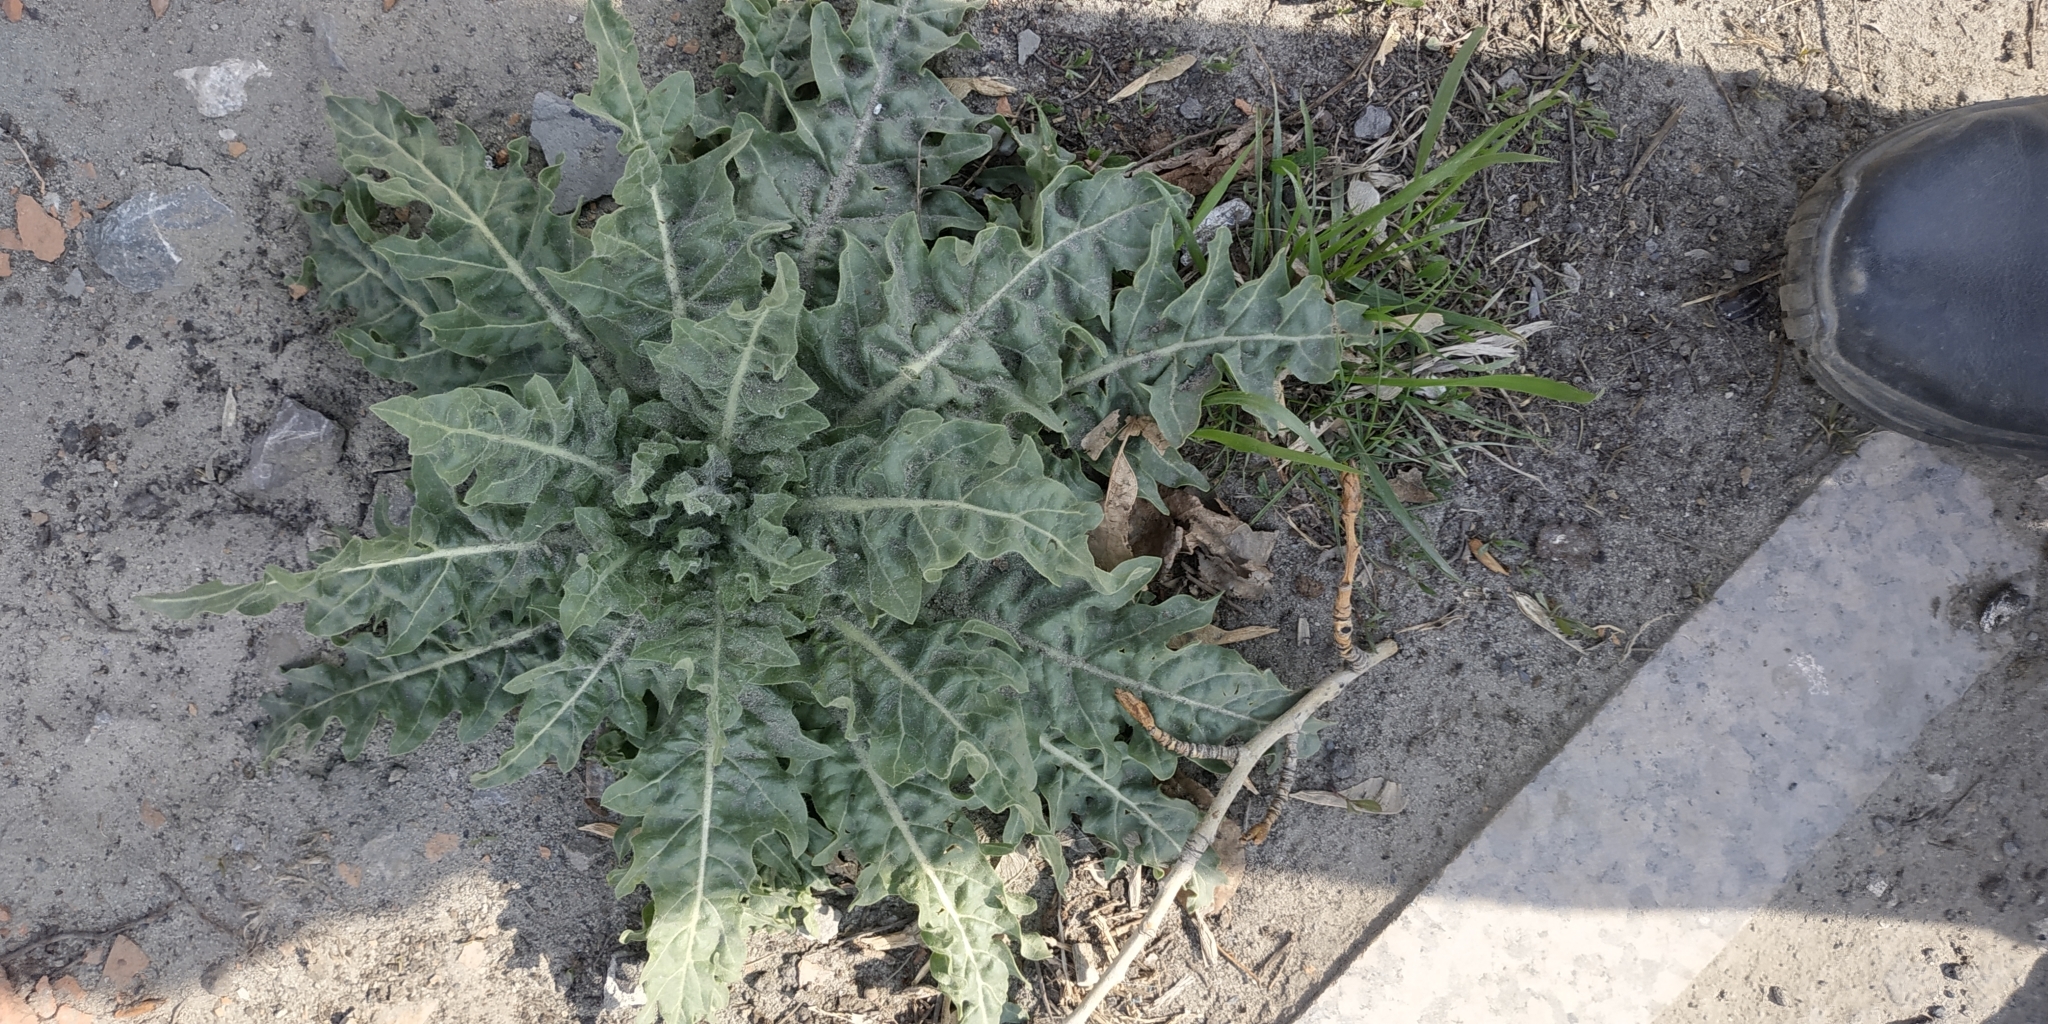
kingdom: Plantae
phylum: Tracheophyta
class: Magnoliopsida
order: Solanales
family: Solanaceae
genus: Hyoscyamus
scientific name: Hyoscyamus niger
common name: Henbane
